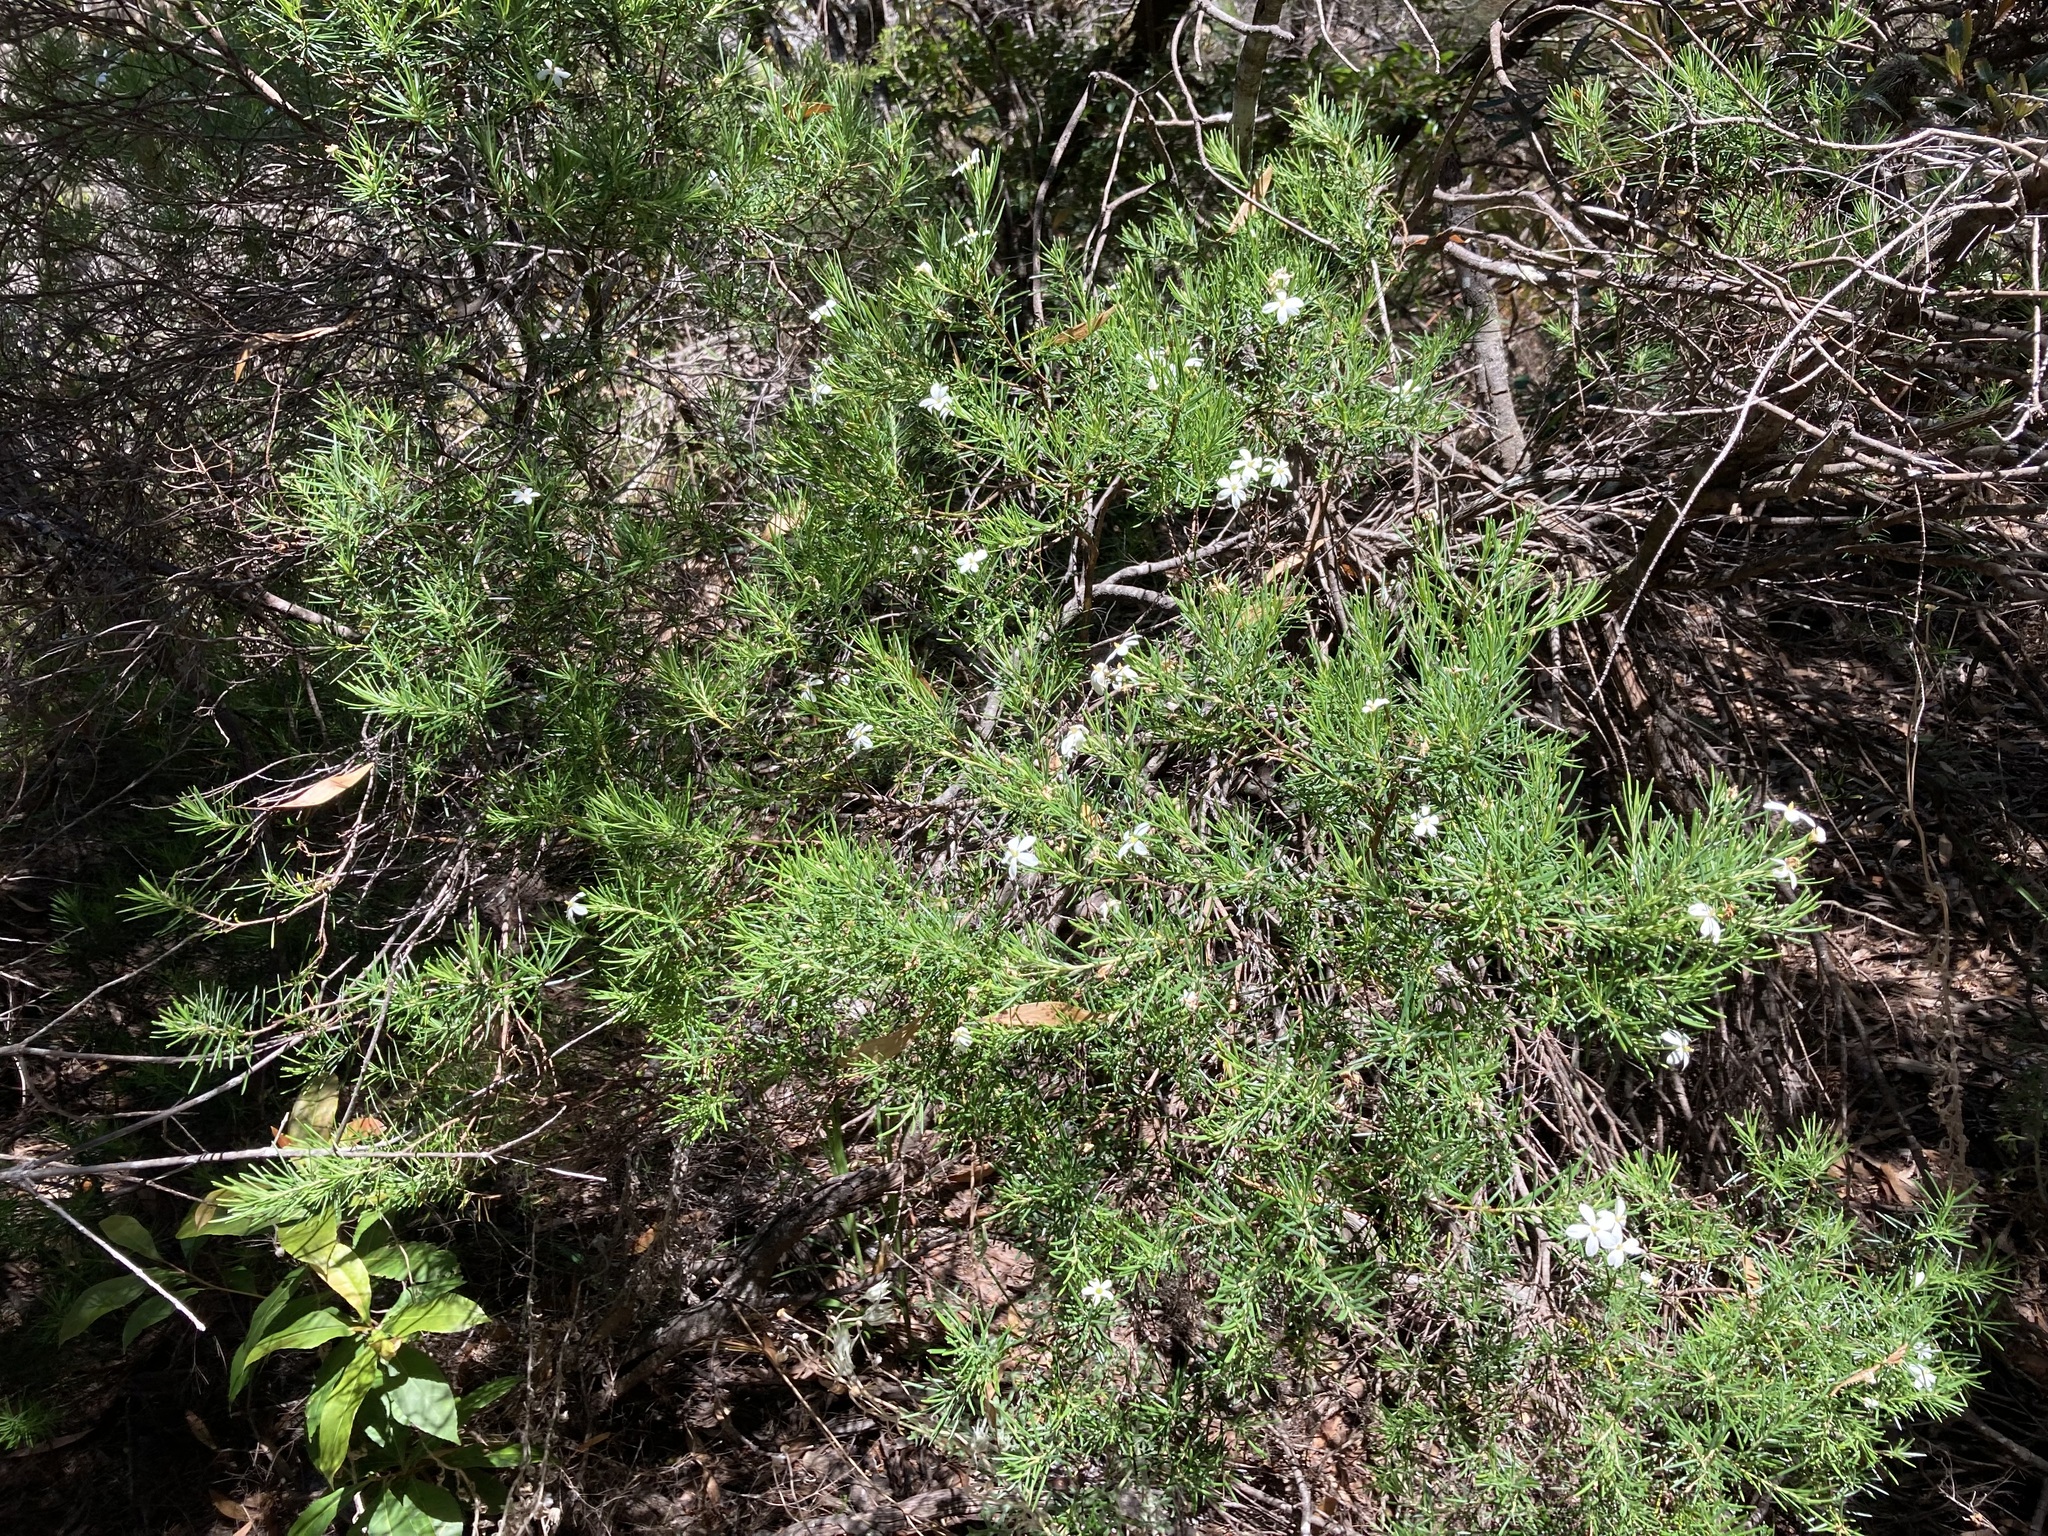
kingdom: Plantae
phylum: Tracheophyta
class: Magnoliopsida
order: Malpighiales
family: Euphorbiaceae
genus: Ricinocarpos
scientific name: Ricinocarpos pinifolius
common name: Weddingbush
